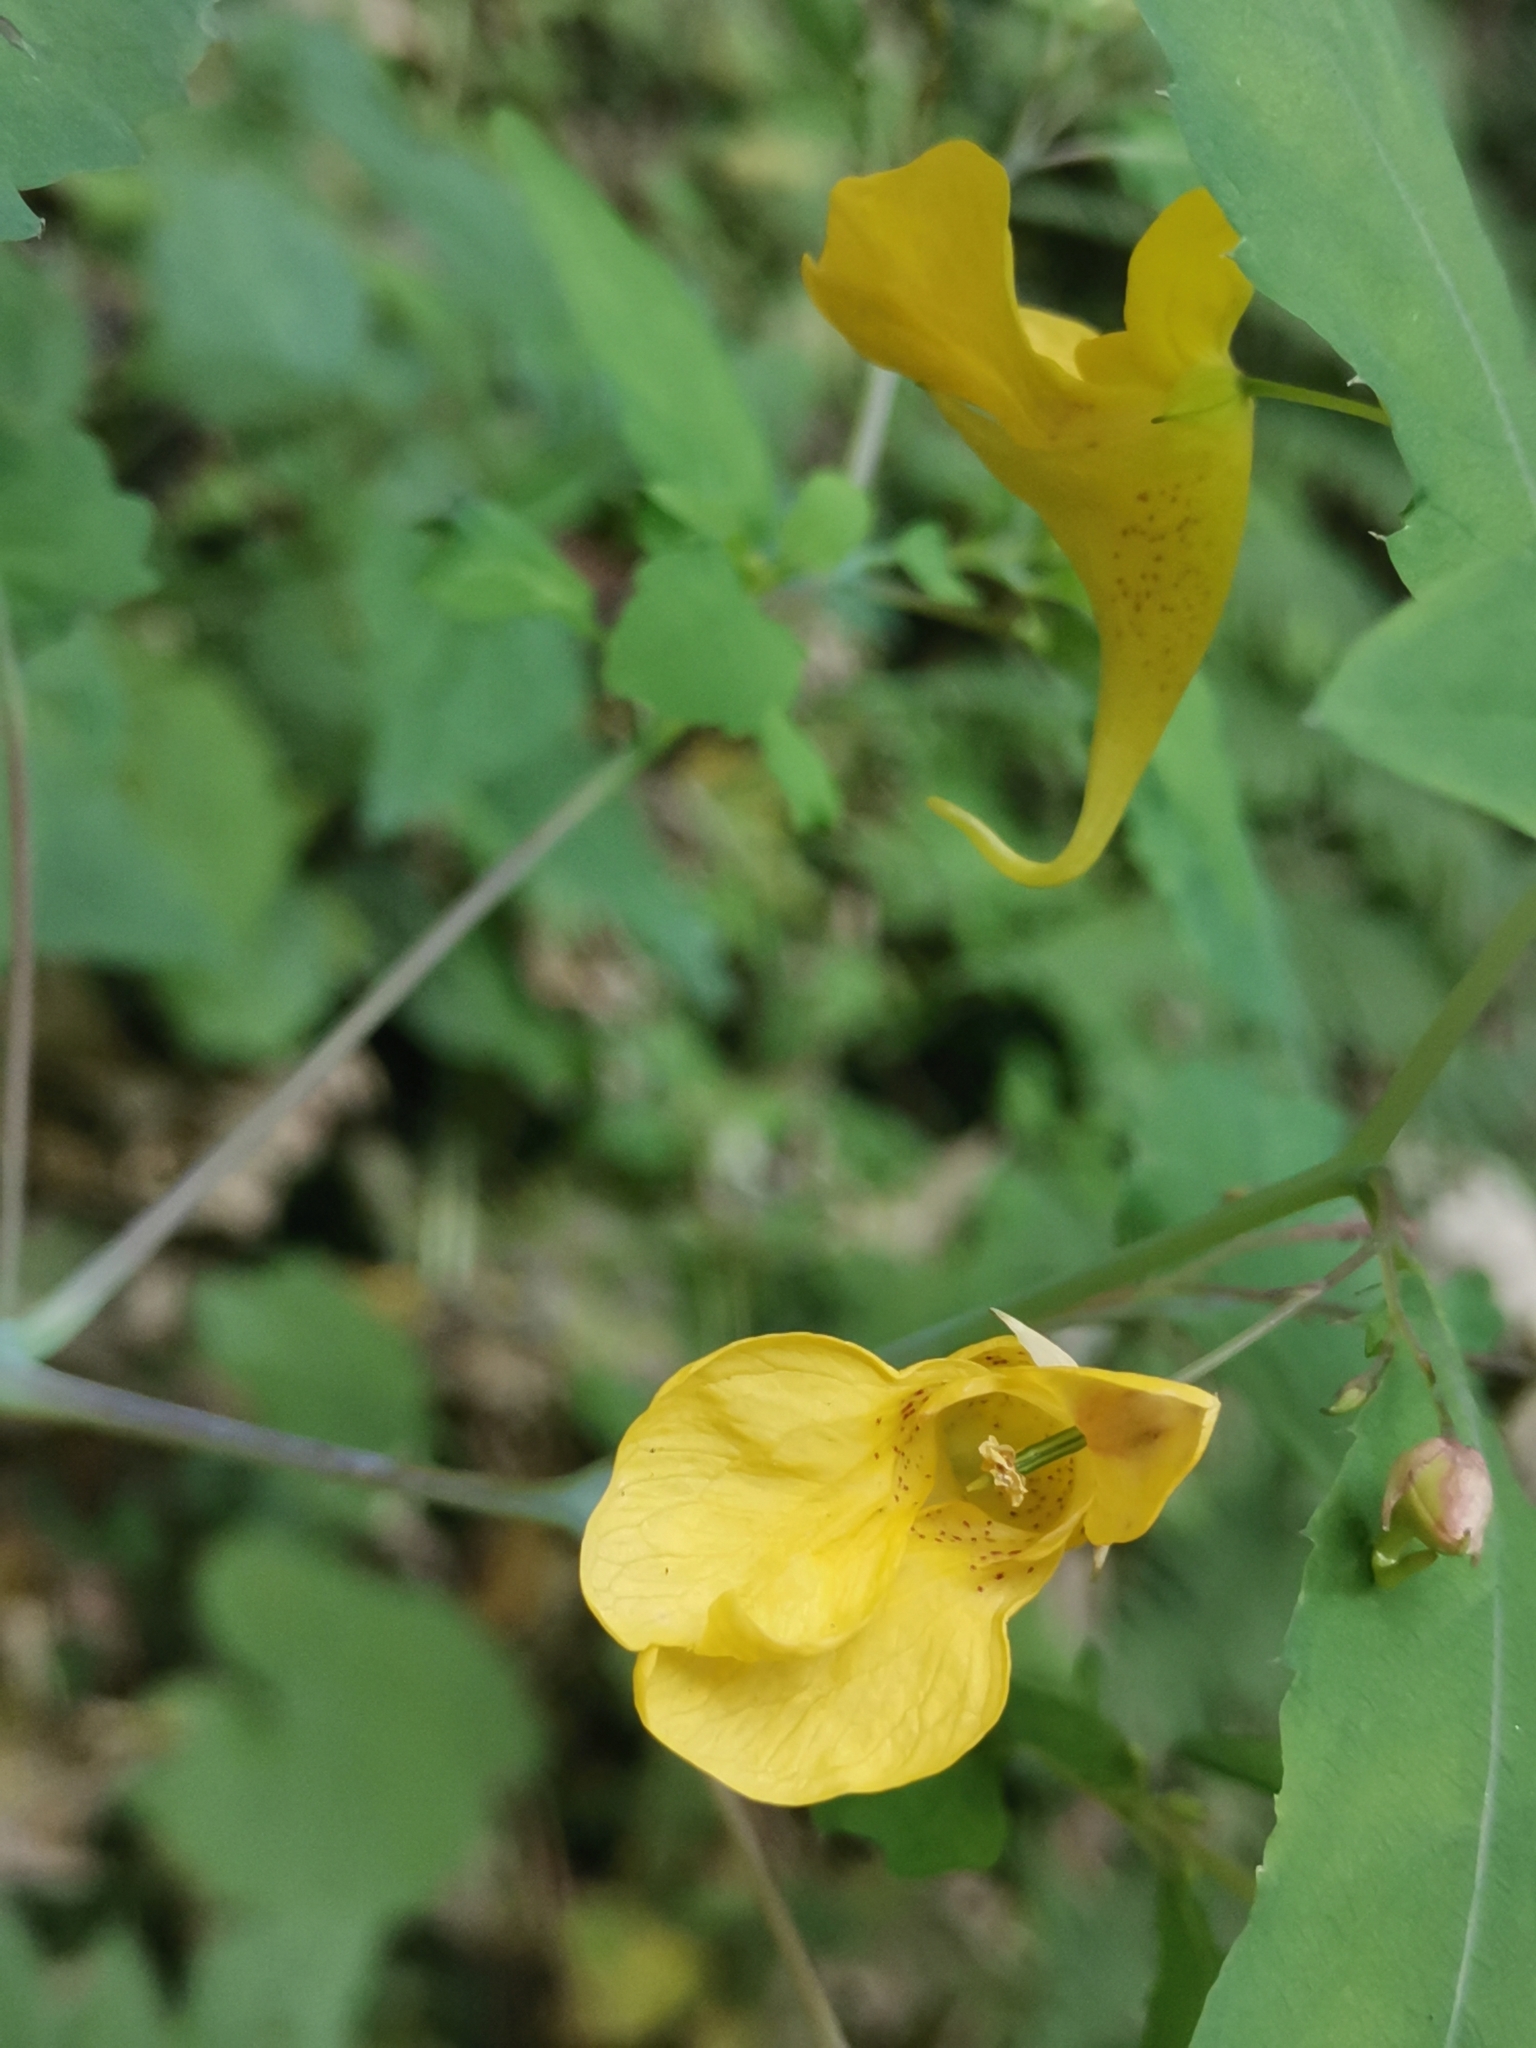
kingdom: Plantae
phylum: Tracheophyta
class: Magnoliopsida
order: Ericales
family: Balsaminaceae
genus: Impatiens
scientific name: Impatiens noli-tangere
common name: Touch-me-not balsam
